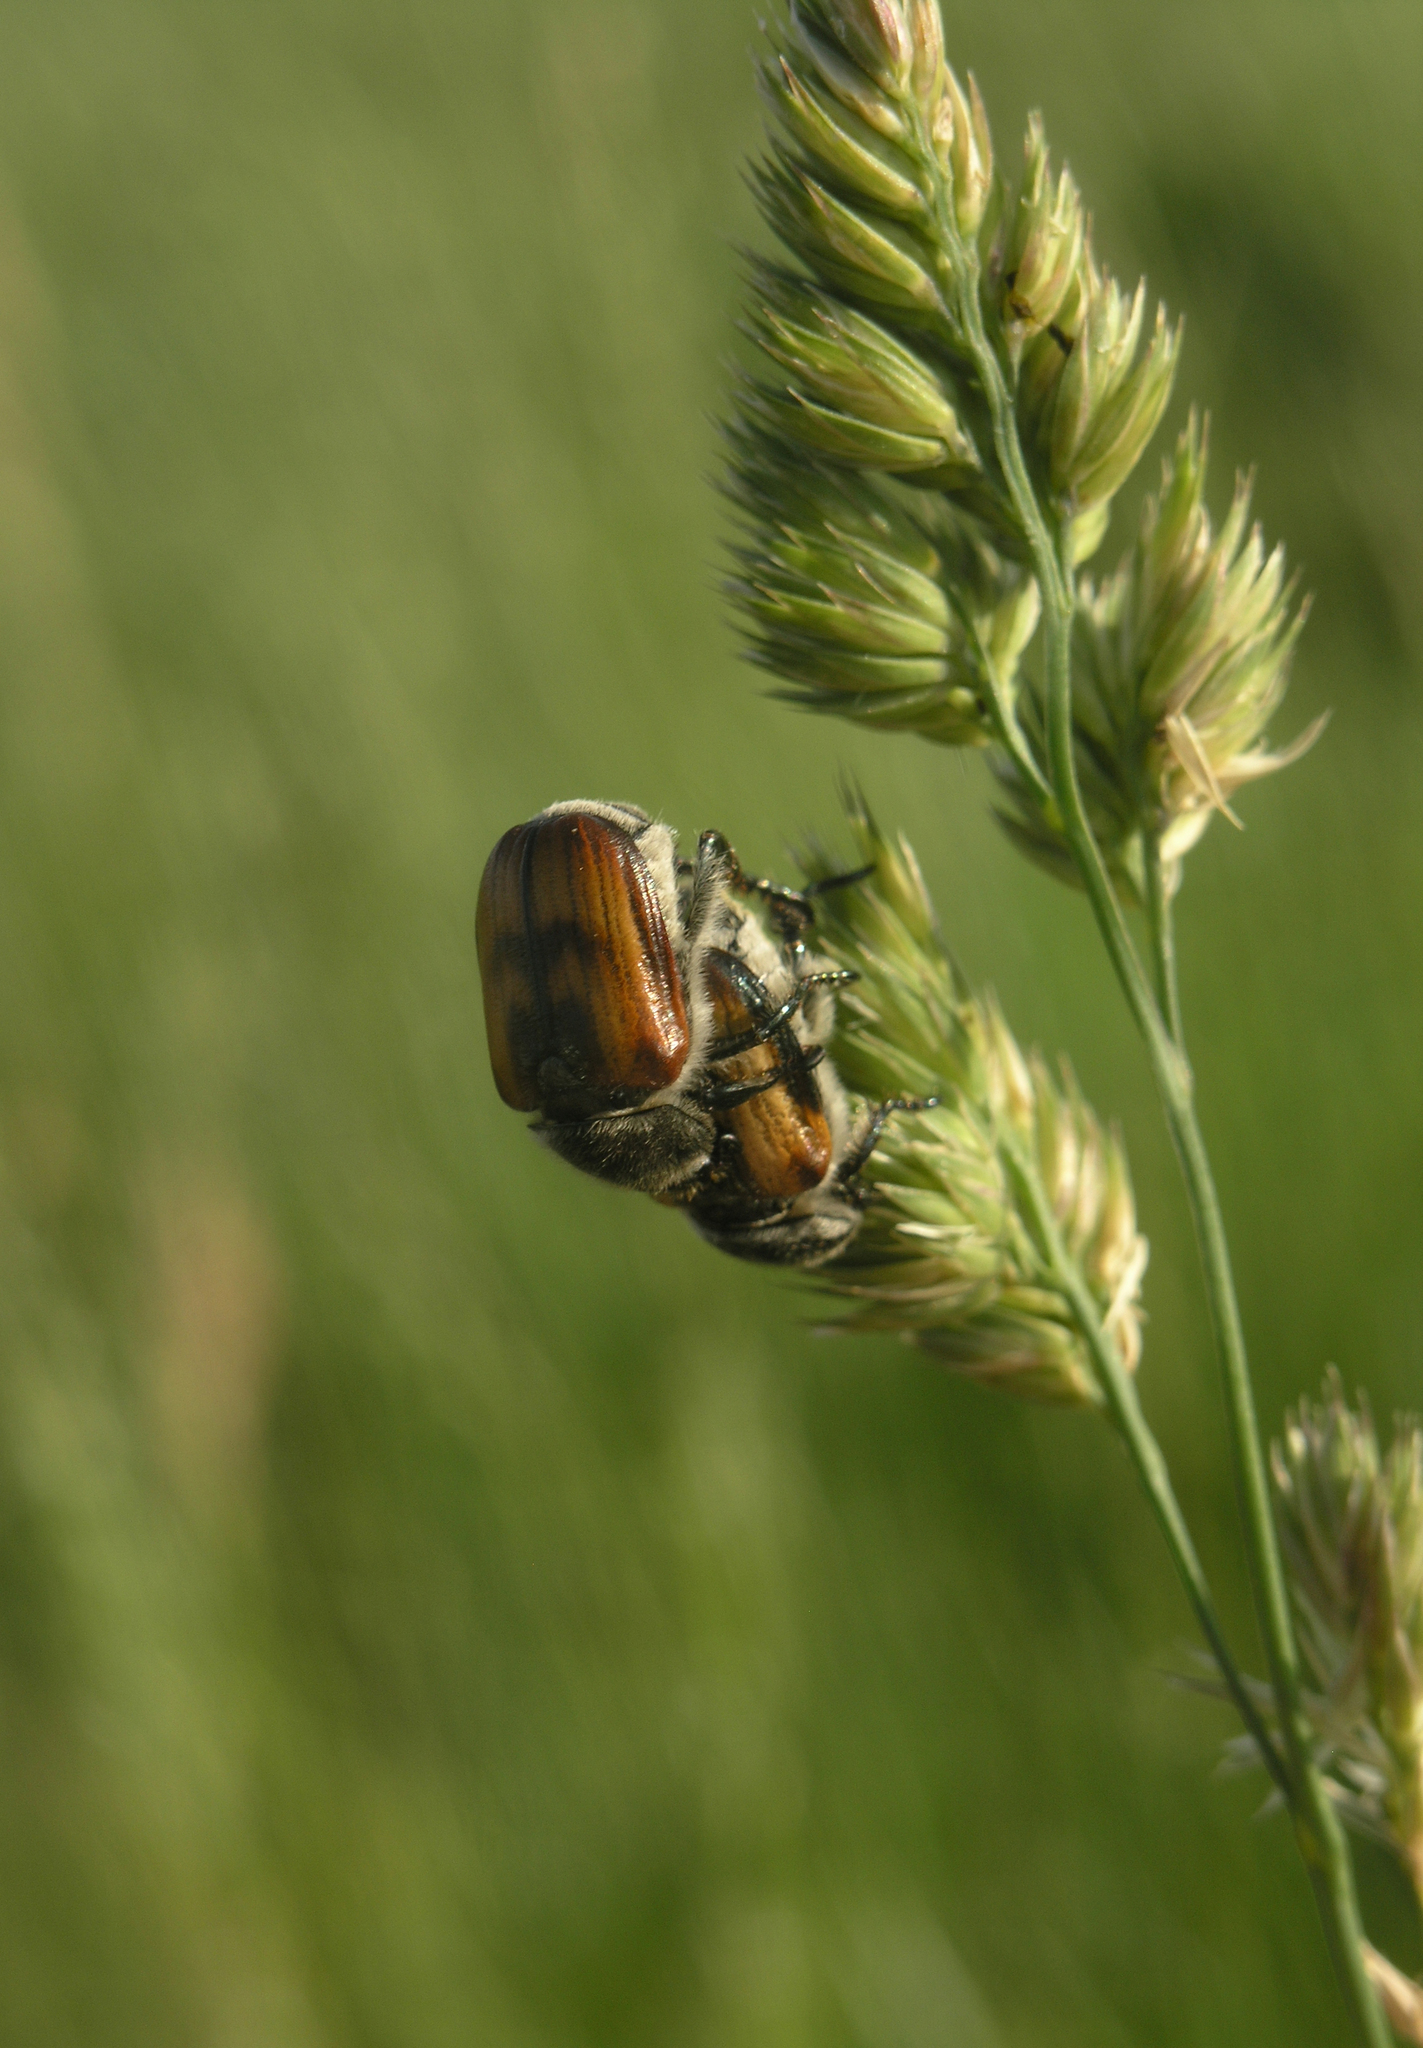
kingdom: Plantae
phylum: Tracheophyta
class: Liliopsida
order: Poales
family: Poaceae
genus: Dactylis
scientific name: Dactylis glomerata
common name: Orchardgrass
